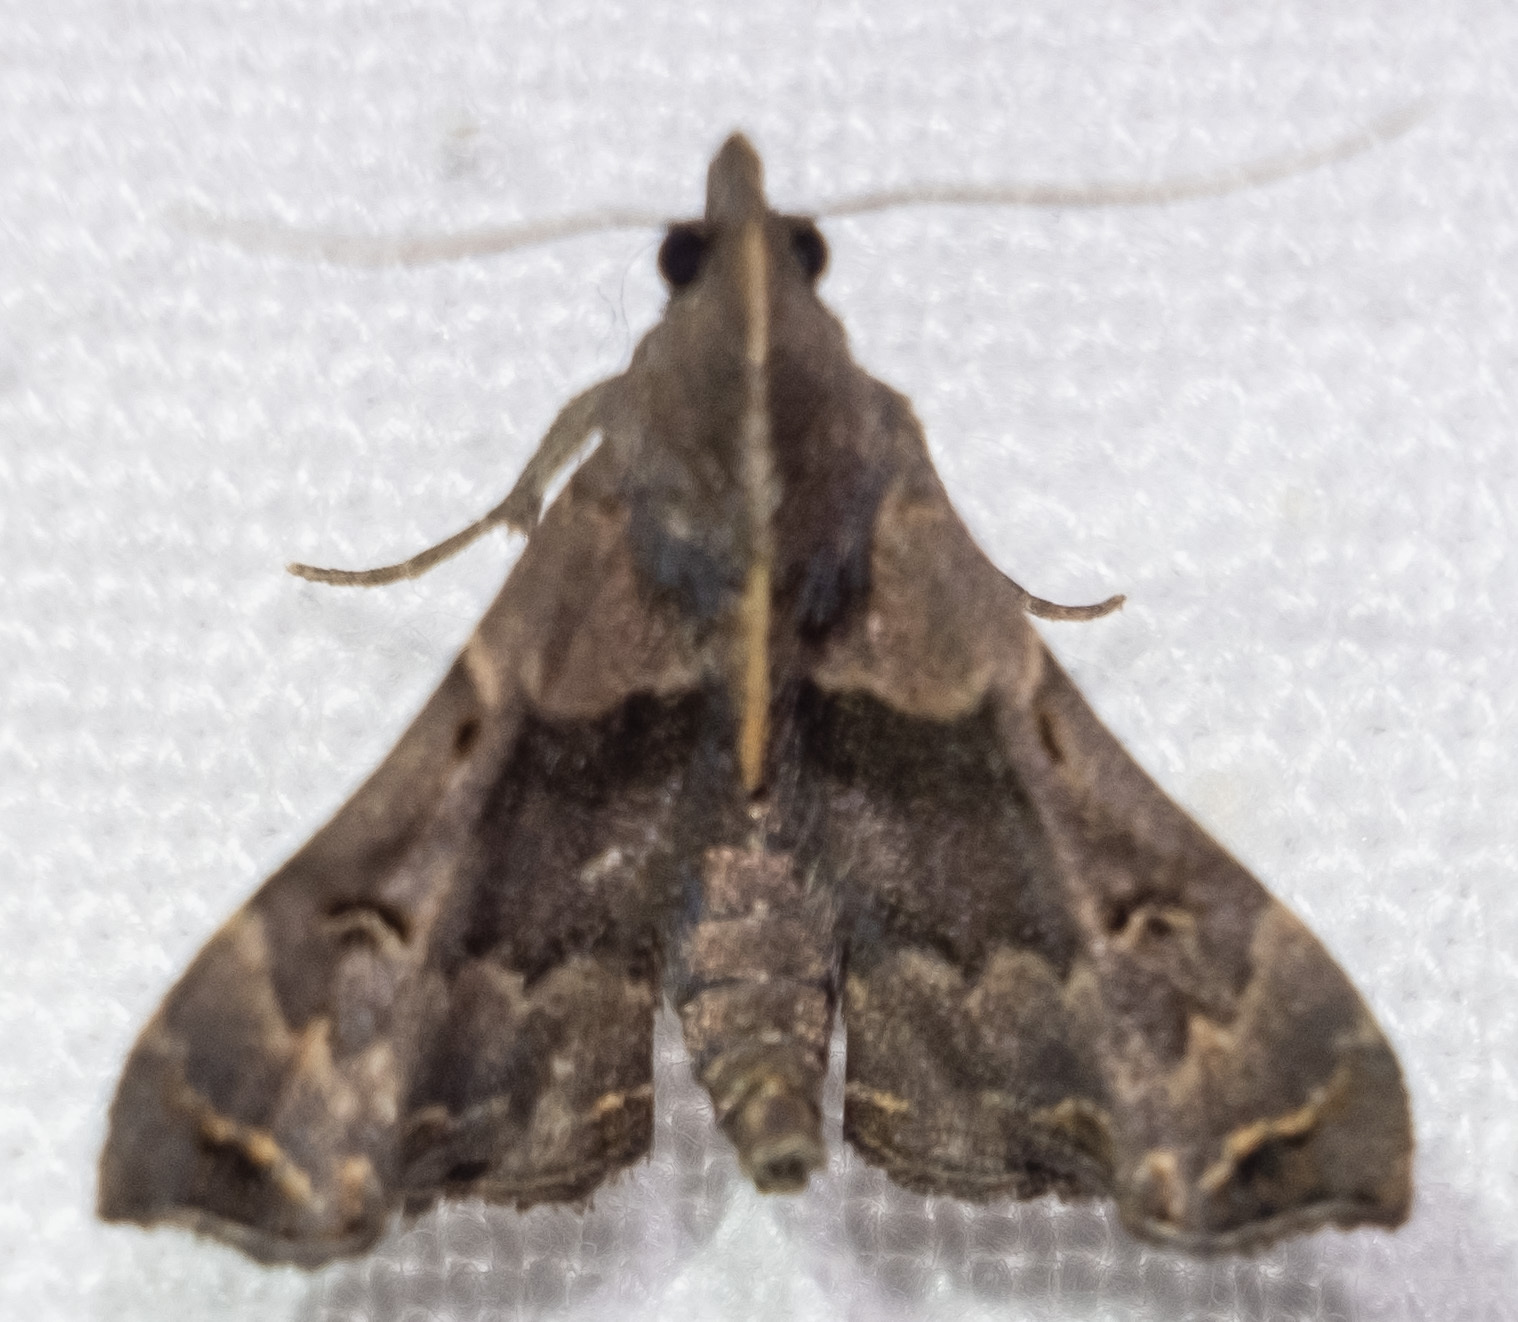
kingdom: Animalia
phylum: Arthropoda
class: Insecta
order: Lepidoptera
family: Erebidae
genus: Palthis
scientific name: Palthis asopialis
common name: Faint-spotted palthis moth
